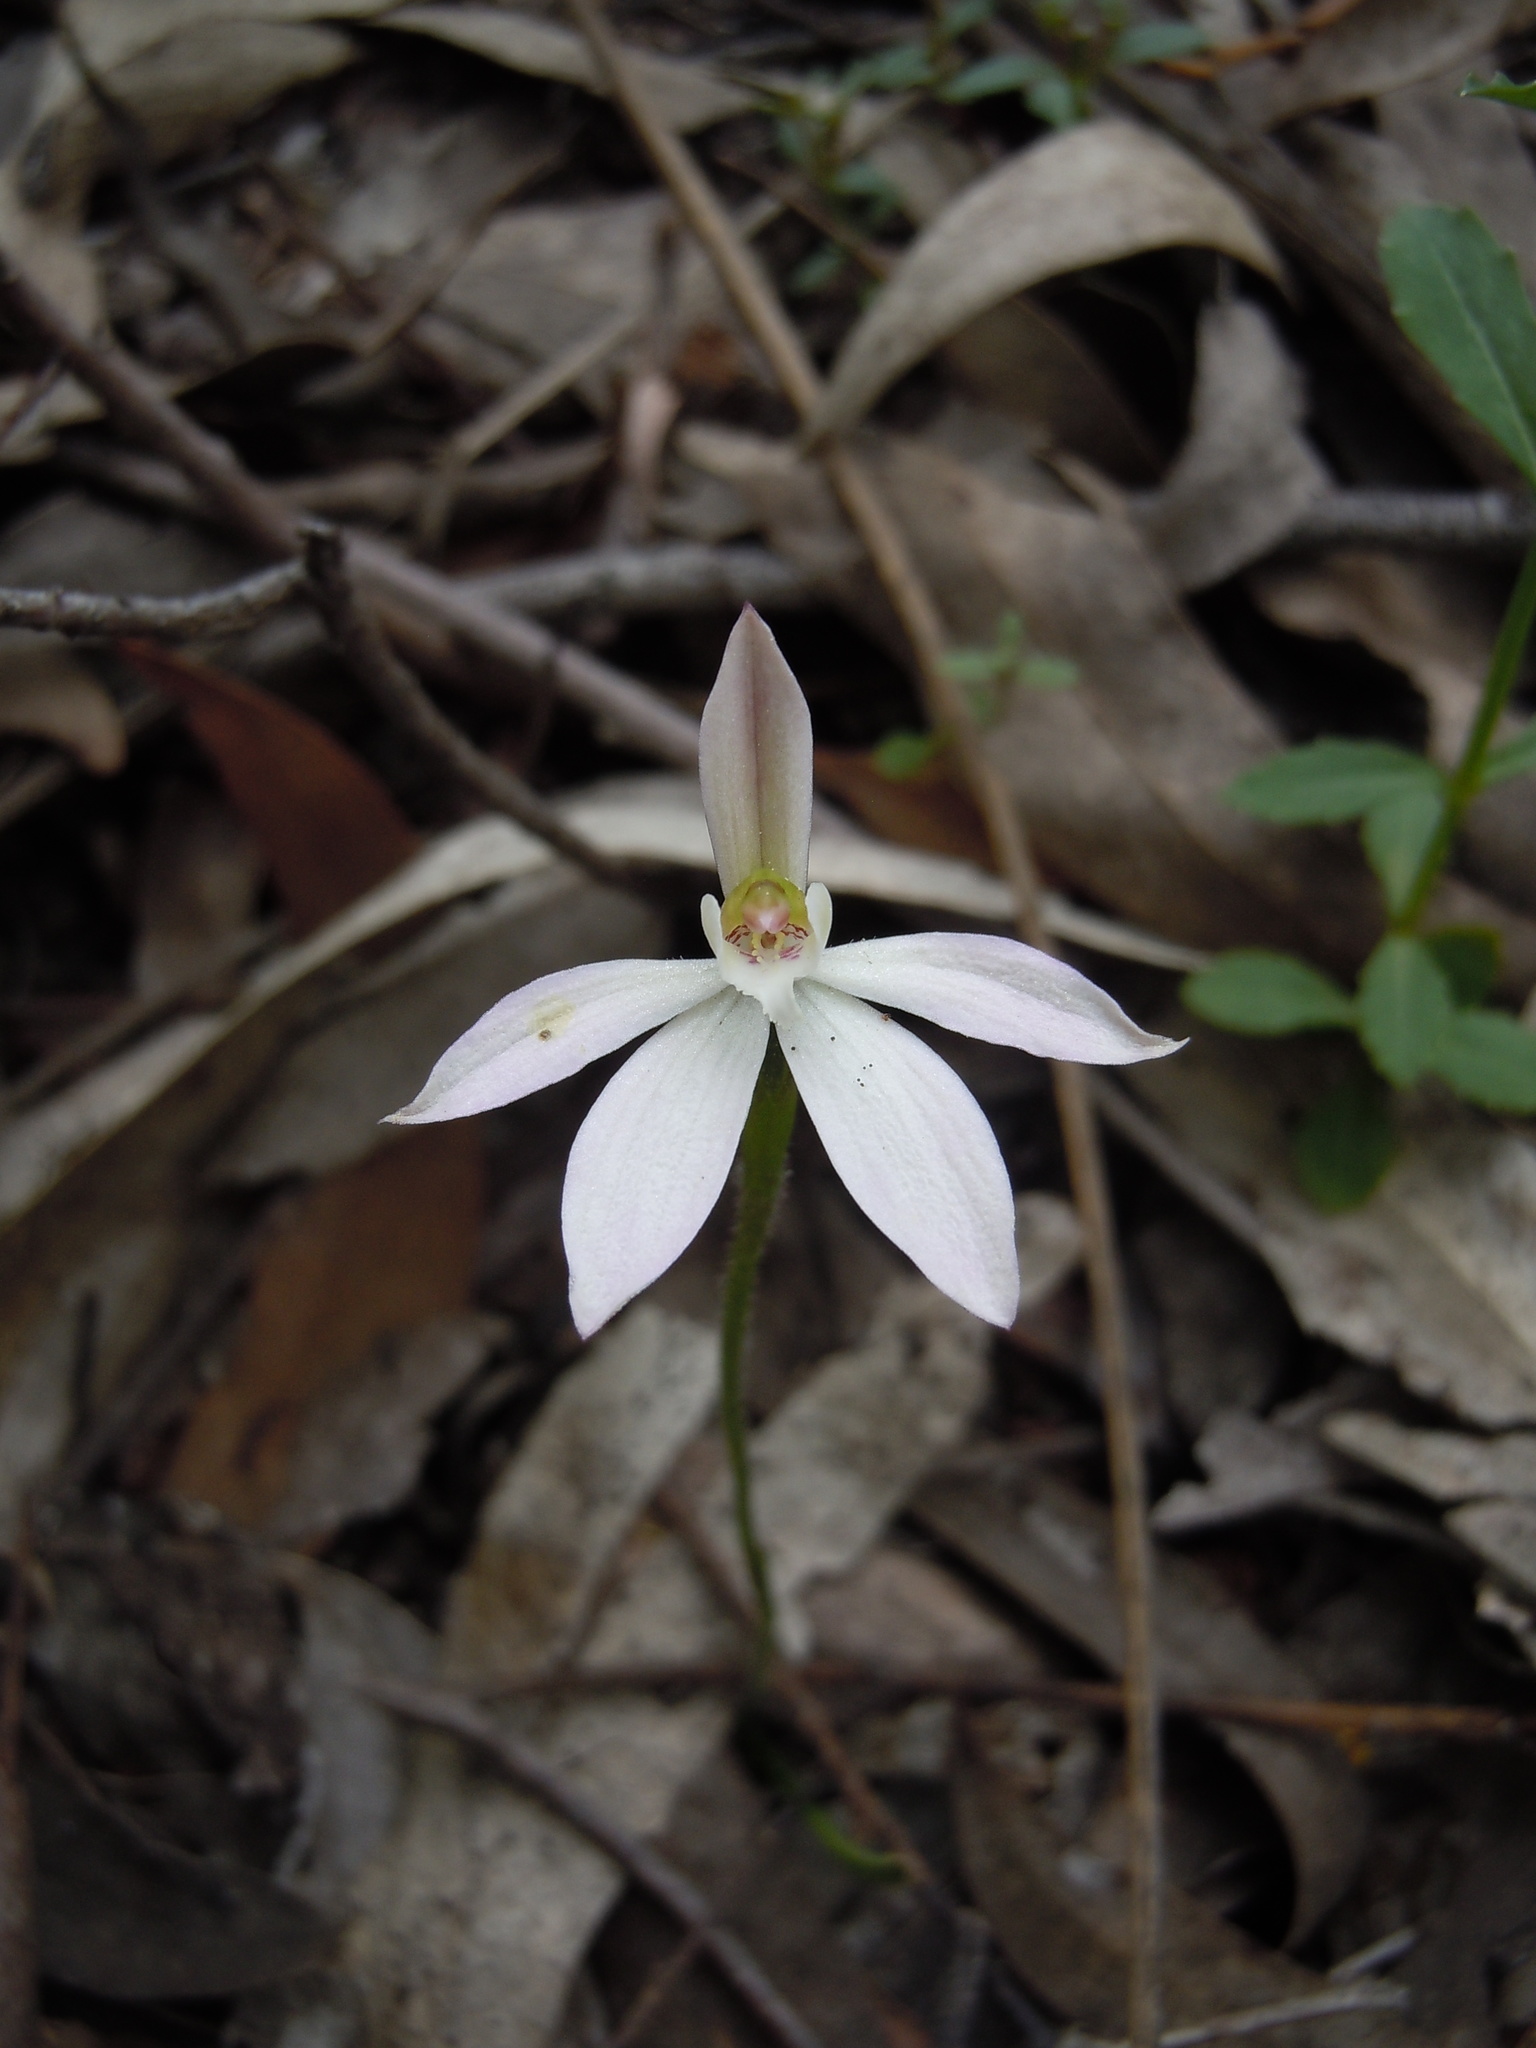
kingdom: Plantae
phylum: Tracheophyta
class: Liliopsida
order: Asparagales
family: Orchidaceae
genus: Caladenia
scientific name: Caladenia carnea
